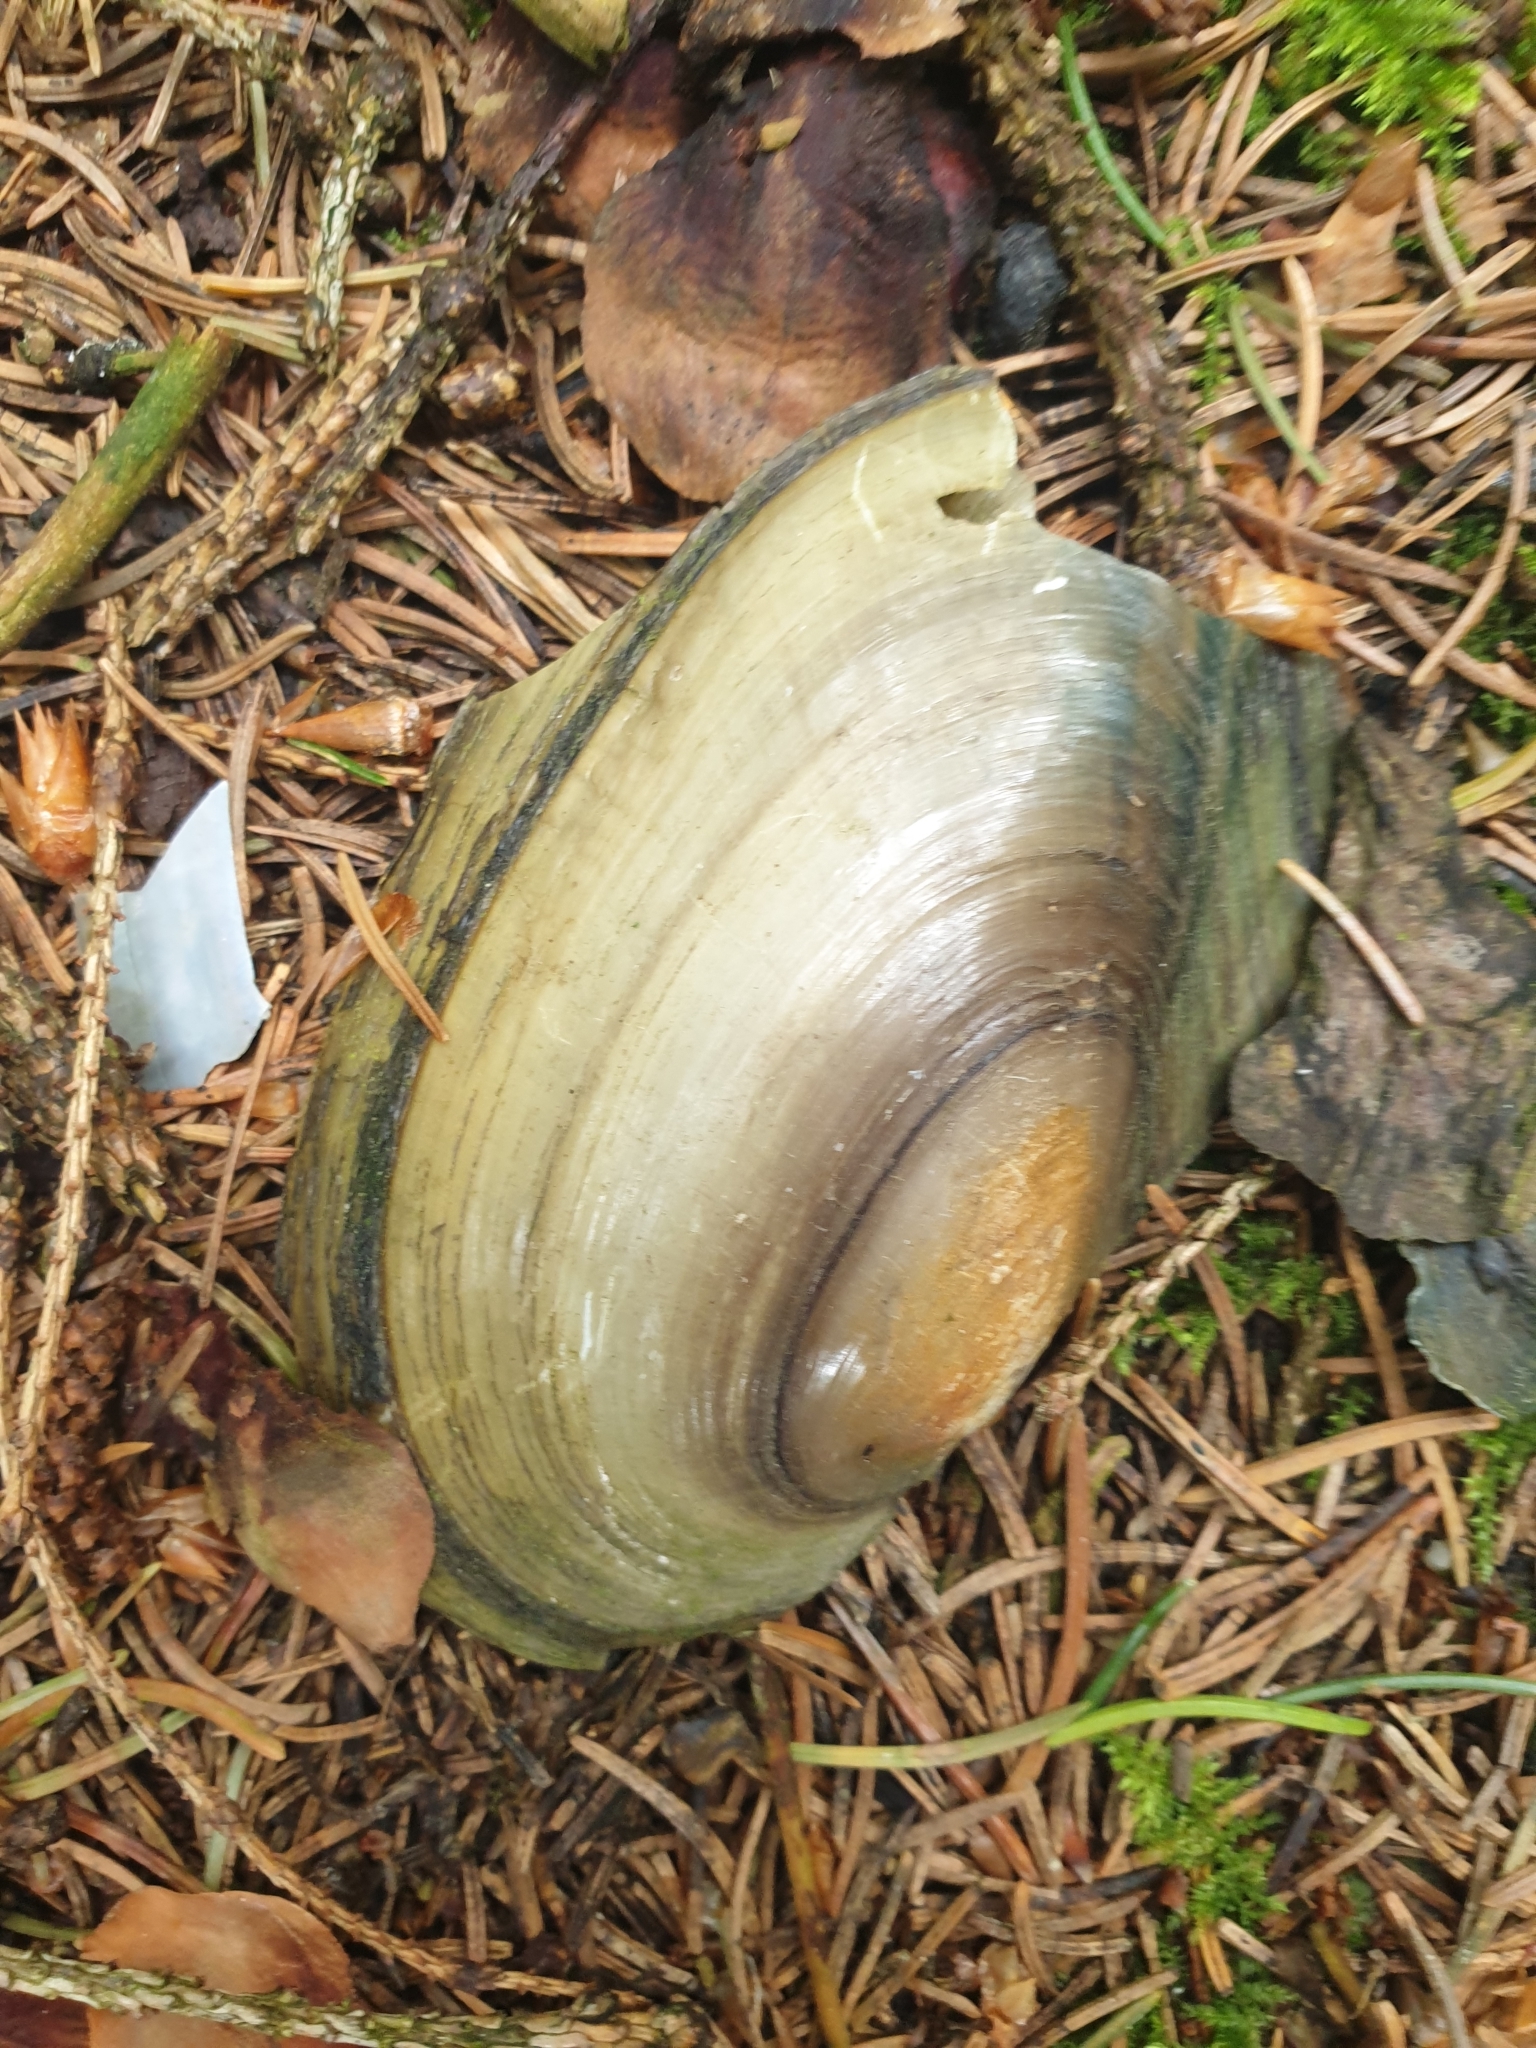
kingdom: Animalia
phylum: Mollusca
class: Bivalvia
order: Unionida
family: Unionidae
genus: Anodonta
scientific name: Anodonta anatina
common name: Duck mussel
